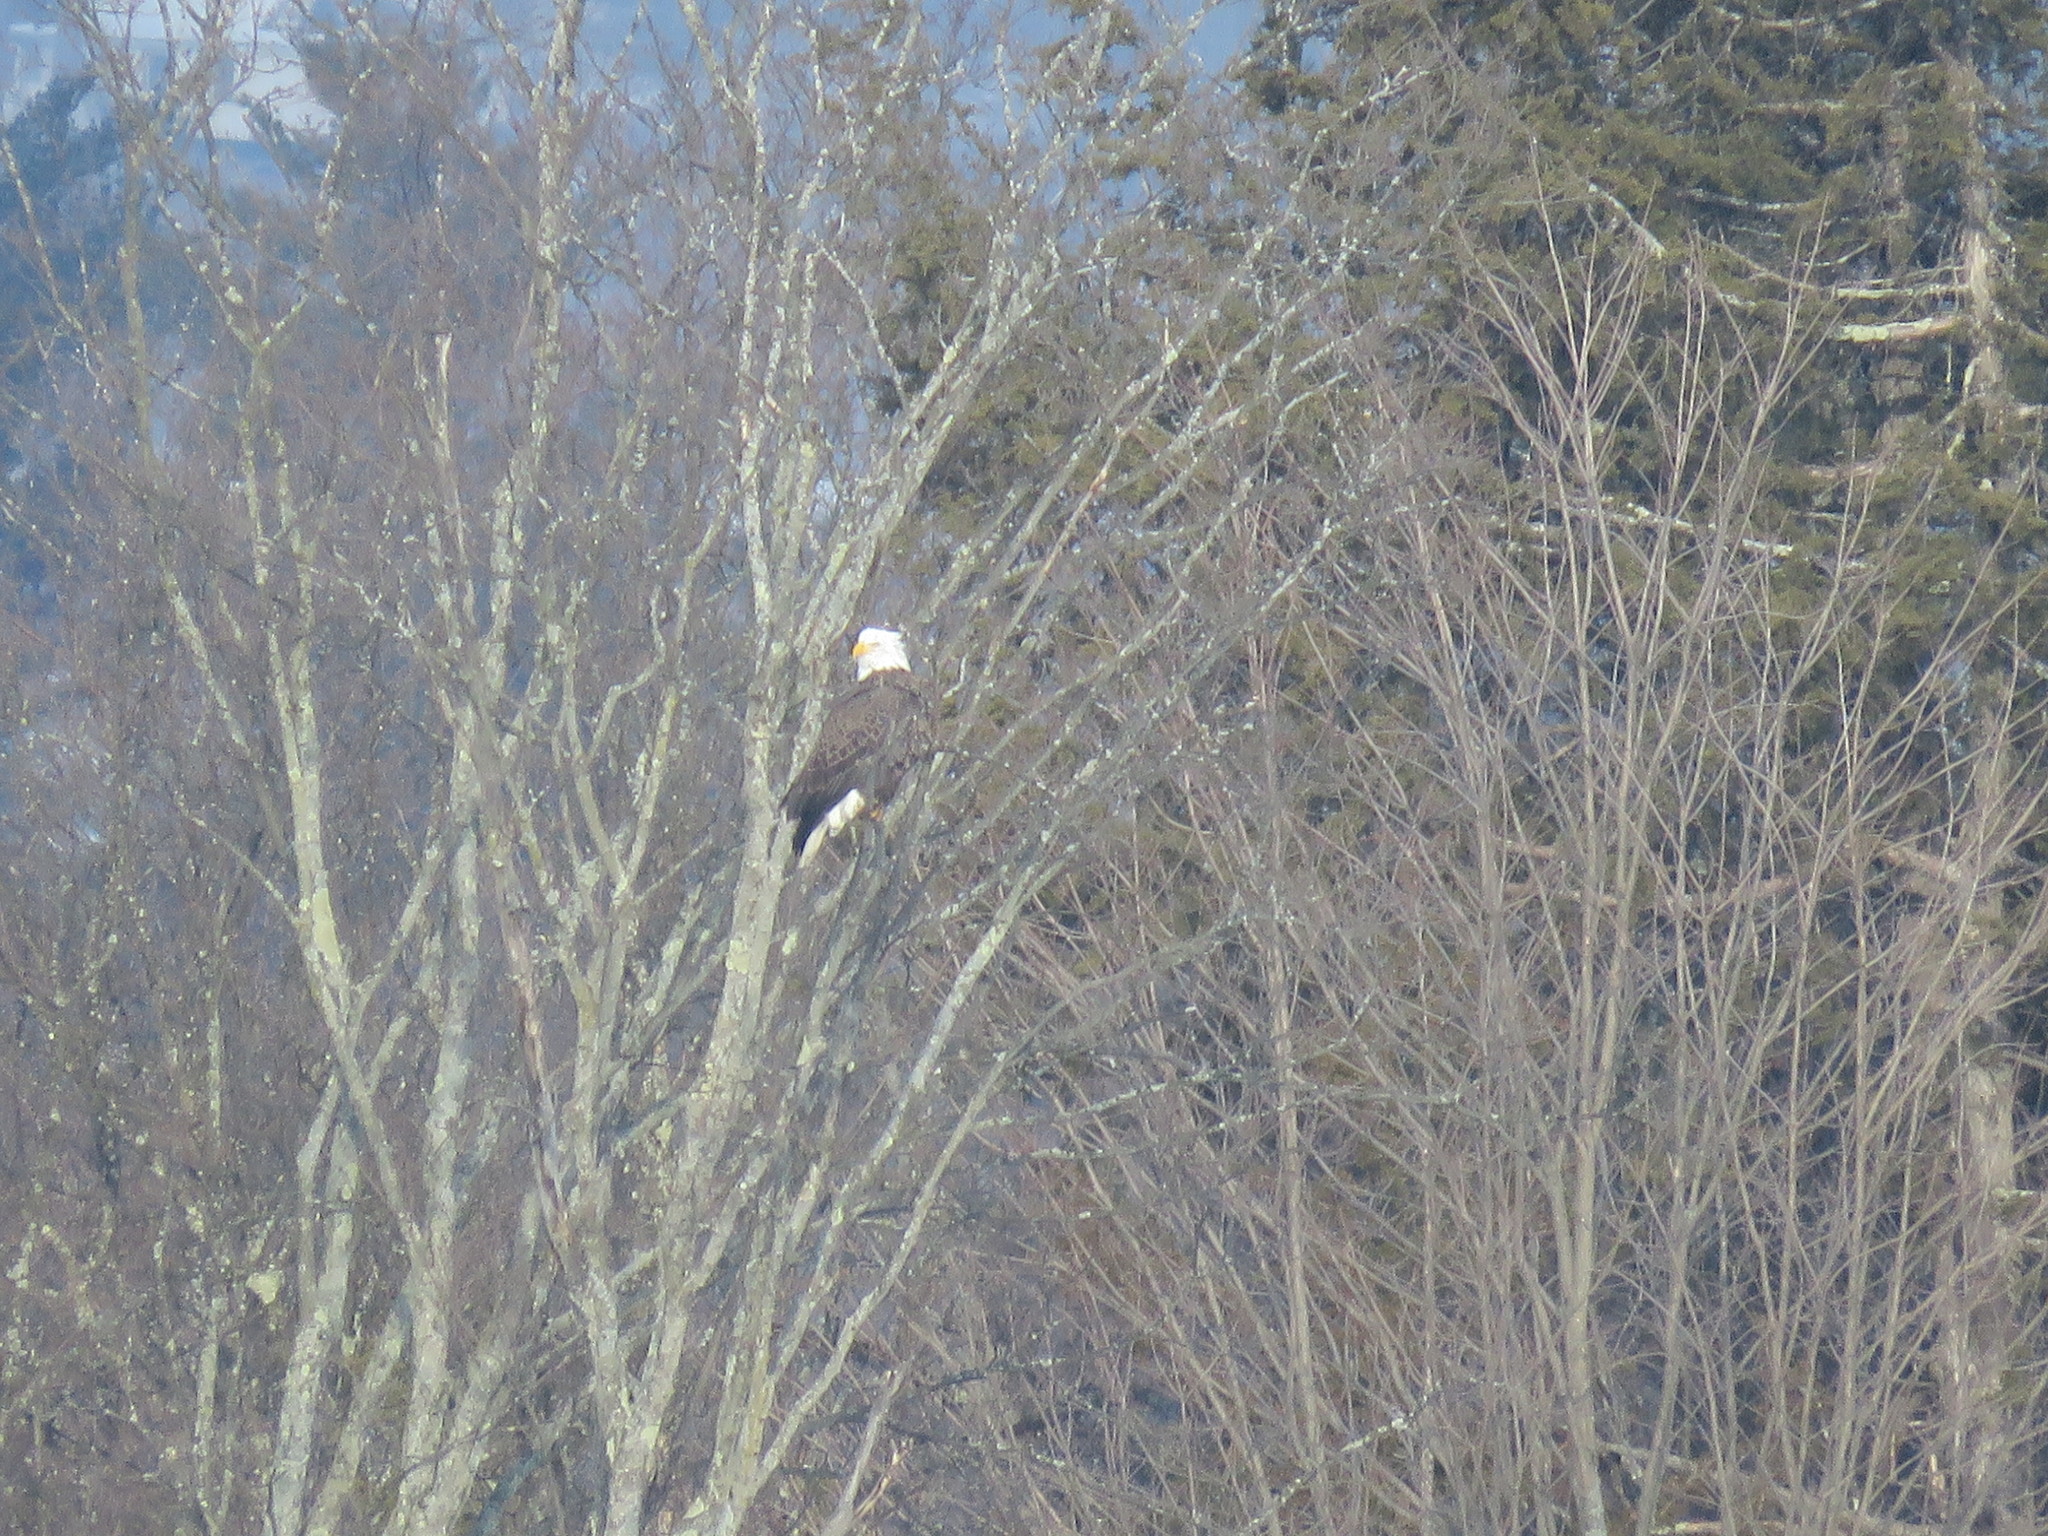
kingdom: Animalia
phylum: Chordata
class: Aves
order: Accipitriformes
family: Accipitridae
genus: Haliaeetus
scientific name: Haliaeetus leucocephalus
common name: Bald eagle
